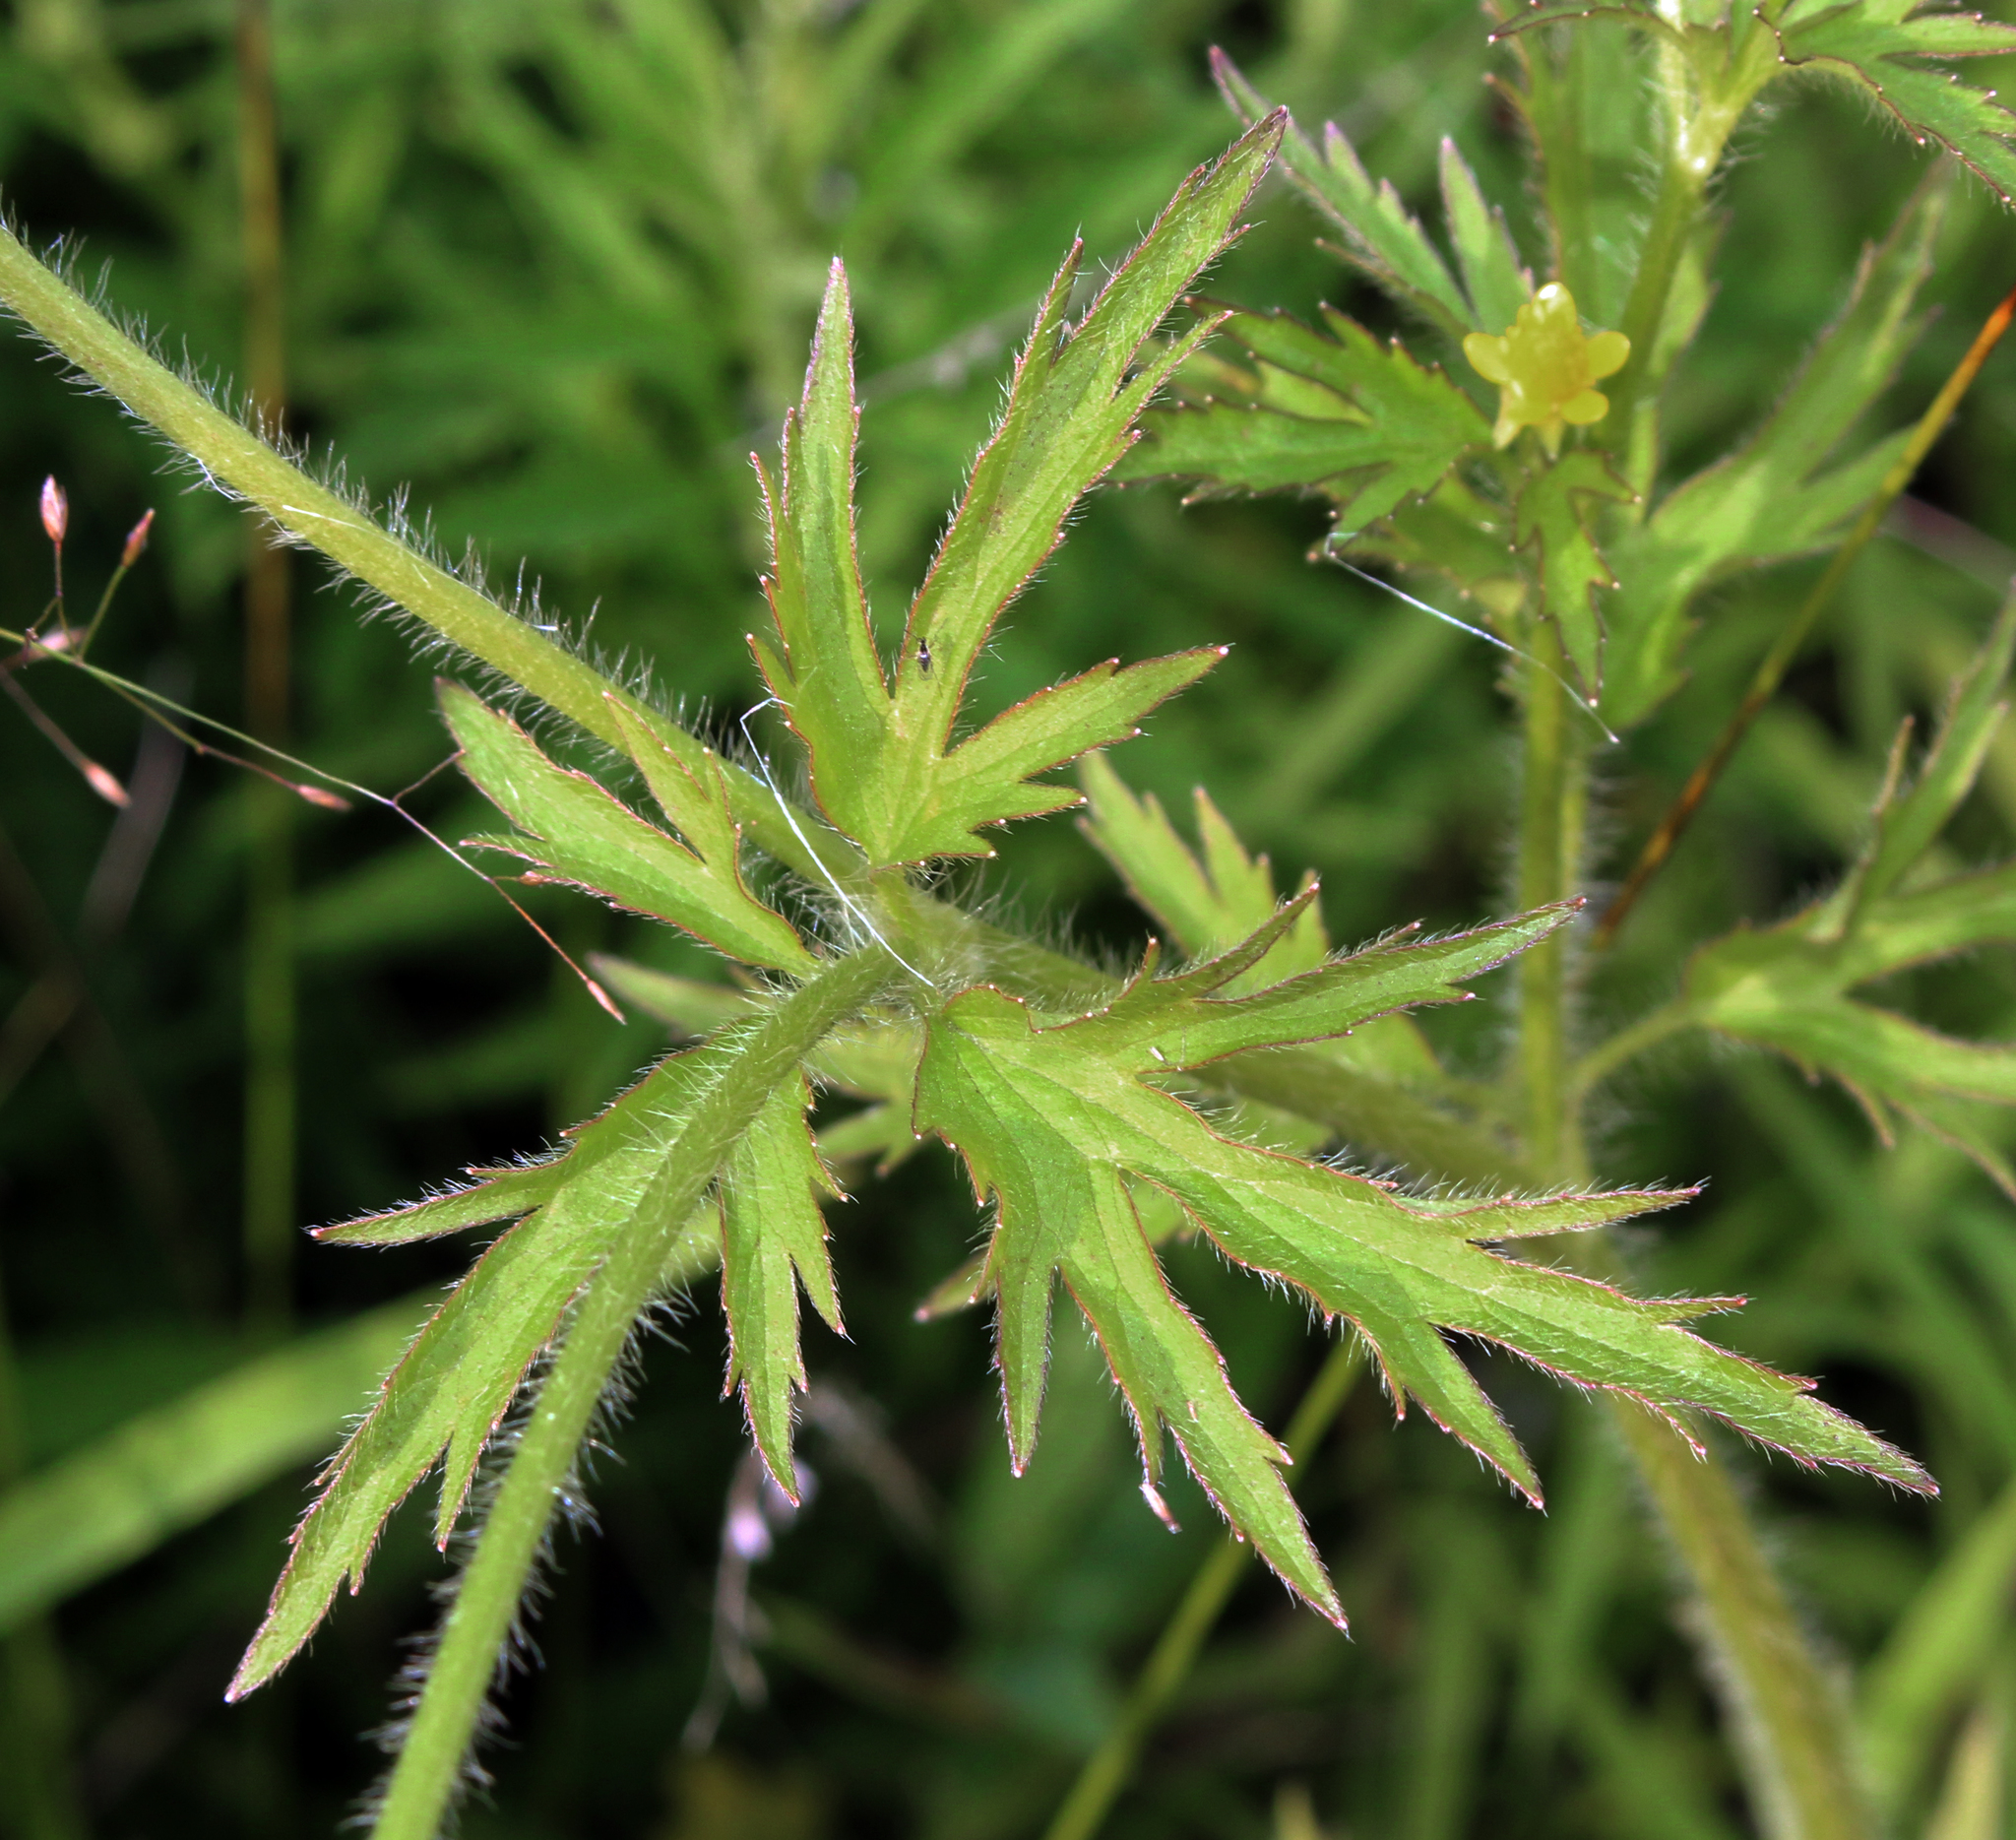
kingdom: Plantae
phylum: Tracheophyta
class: Magnoliopsida
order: Ranunculales
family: Ranunculaceae
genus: Ranunculus
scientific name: Ranunculus pensylvanicus
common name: Bristly buttercup
